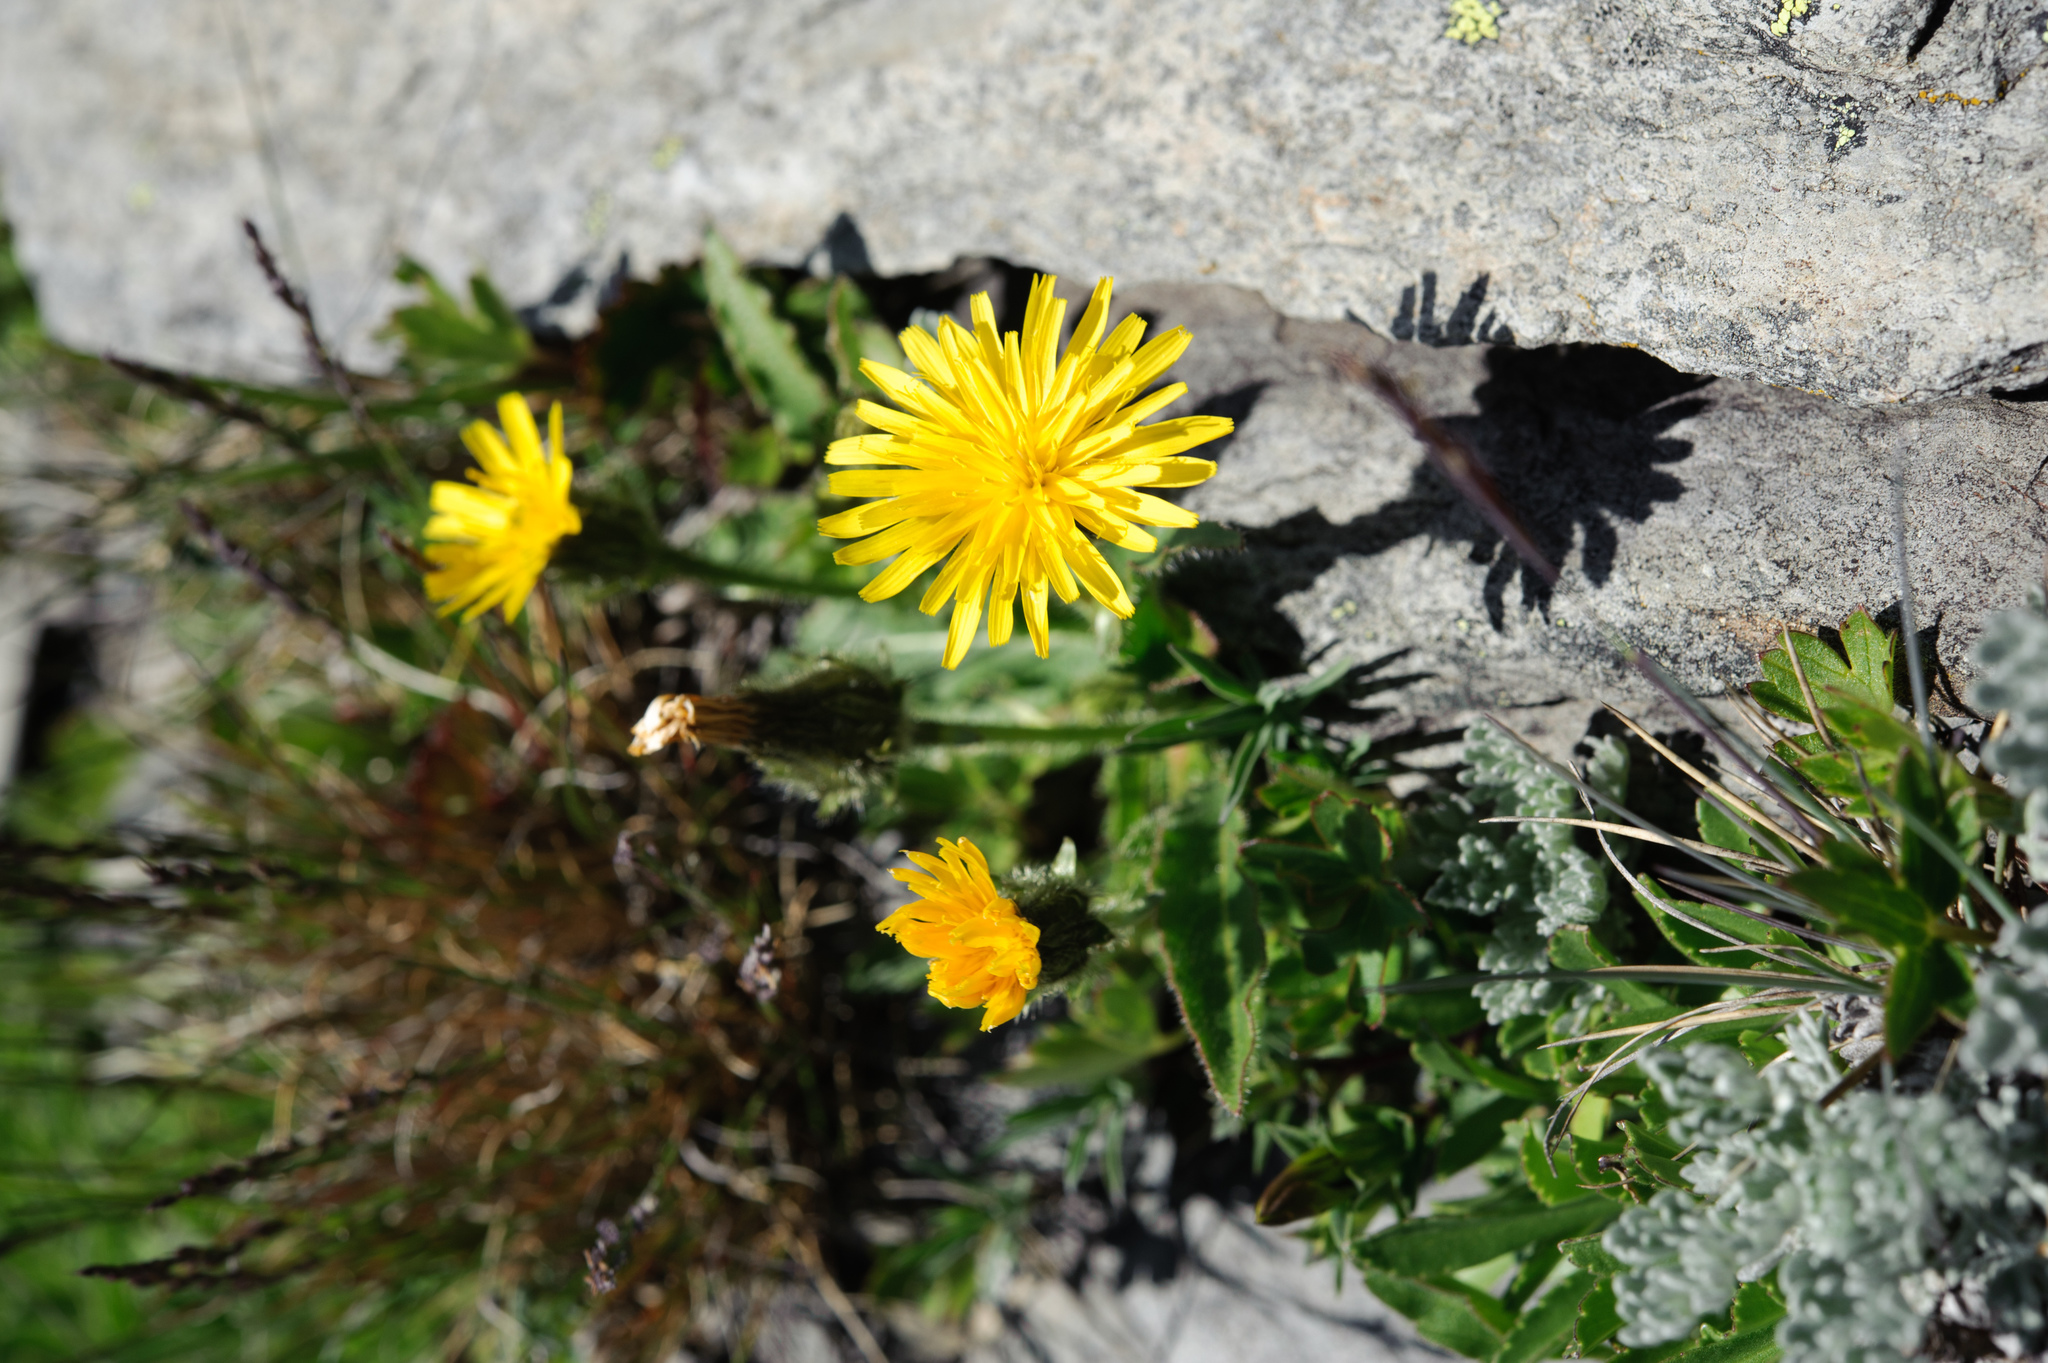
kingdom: Plantae
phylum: Tracheophyta
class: Magnoliopsida
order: Asterales
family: Asteraceae
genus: Picris
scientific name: Picris angustifolia
